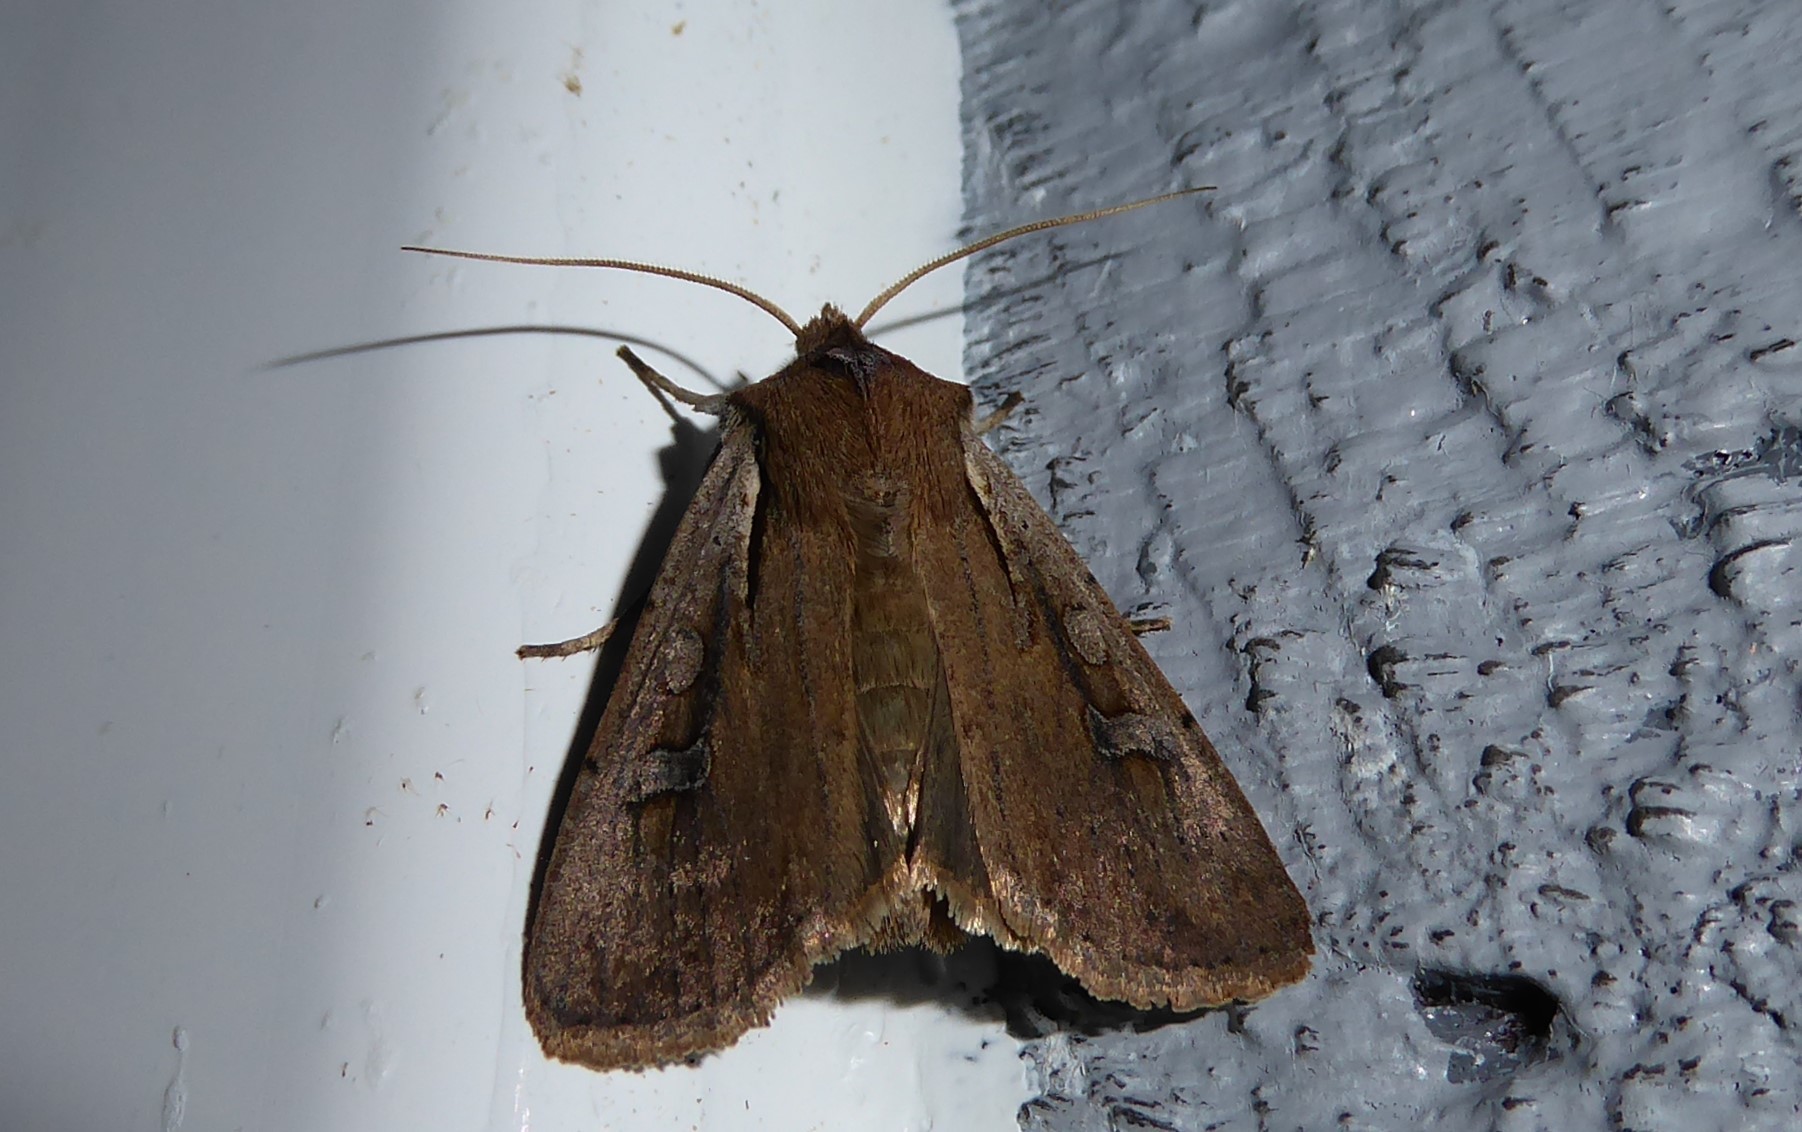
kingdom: Animalia
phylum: Arthropoda
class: Insecta
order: Lepidoptera
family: Noctuidae
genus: Ichneutica
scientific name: Ichneutica atristriga
